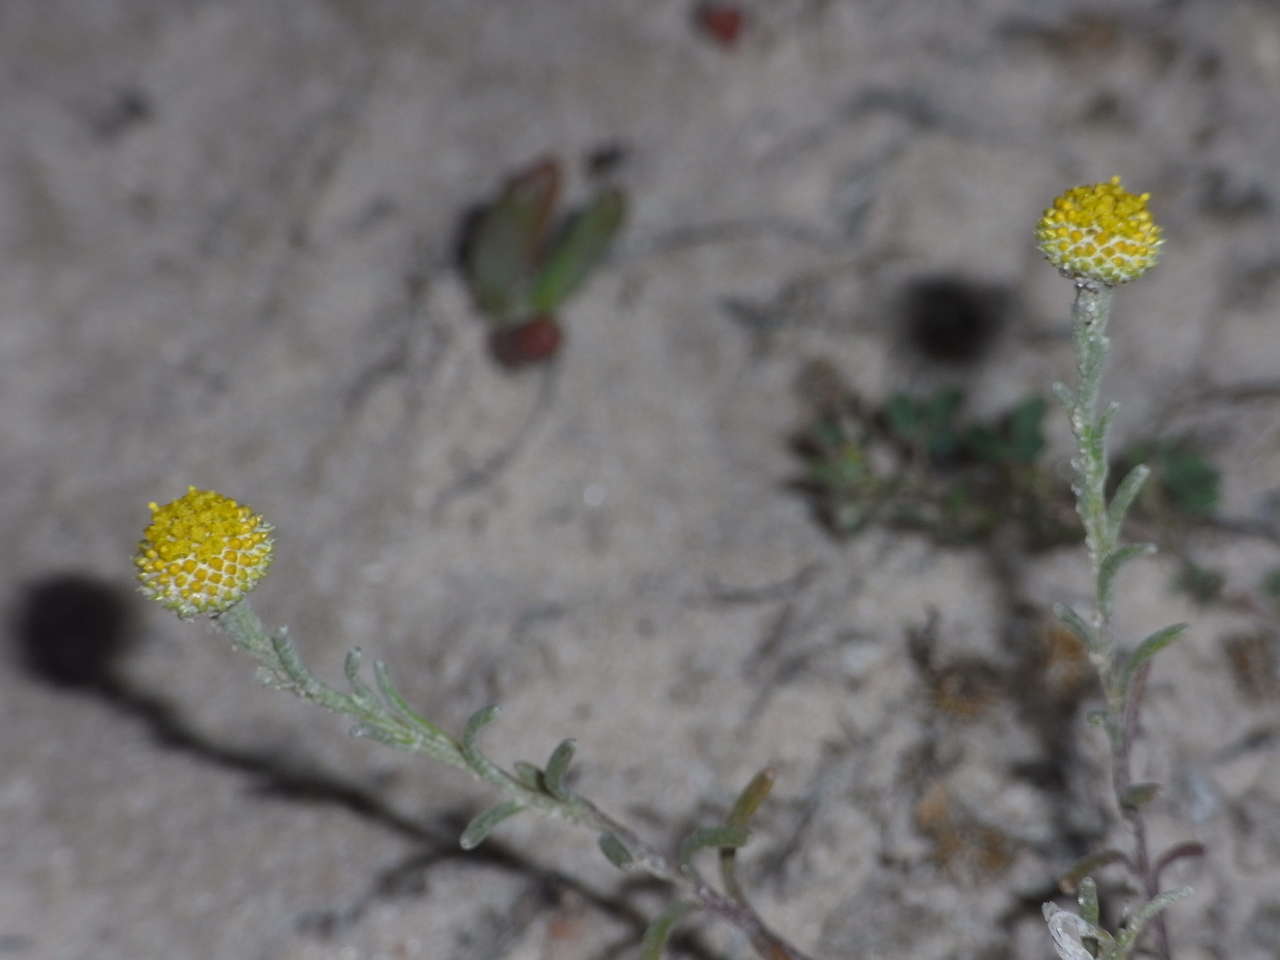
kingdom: Plantae
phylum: Tracheophyta
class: Magnoliopsida
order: Asterales
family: Asteraceae
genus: Trichanthodium
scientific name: Trichanthodium skirrophorum
